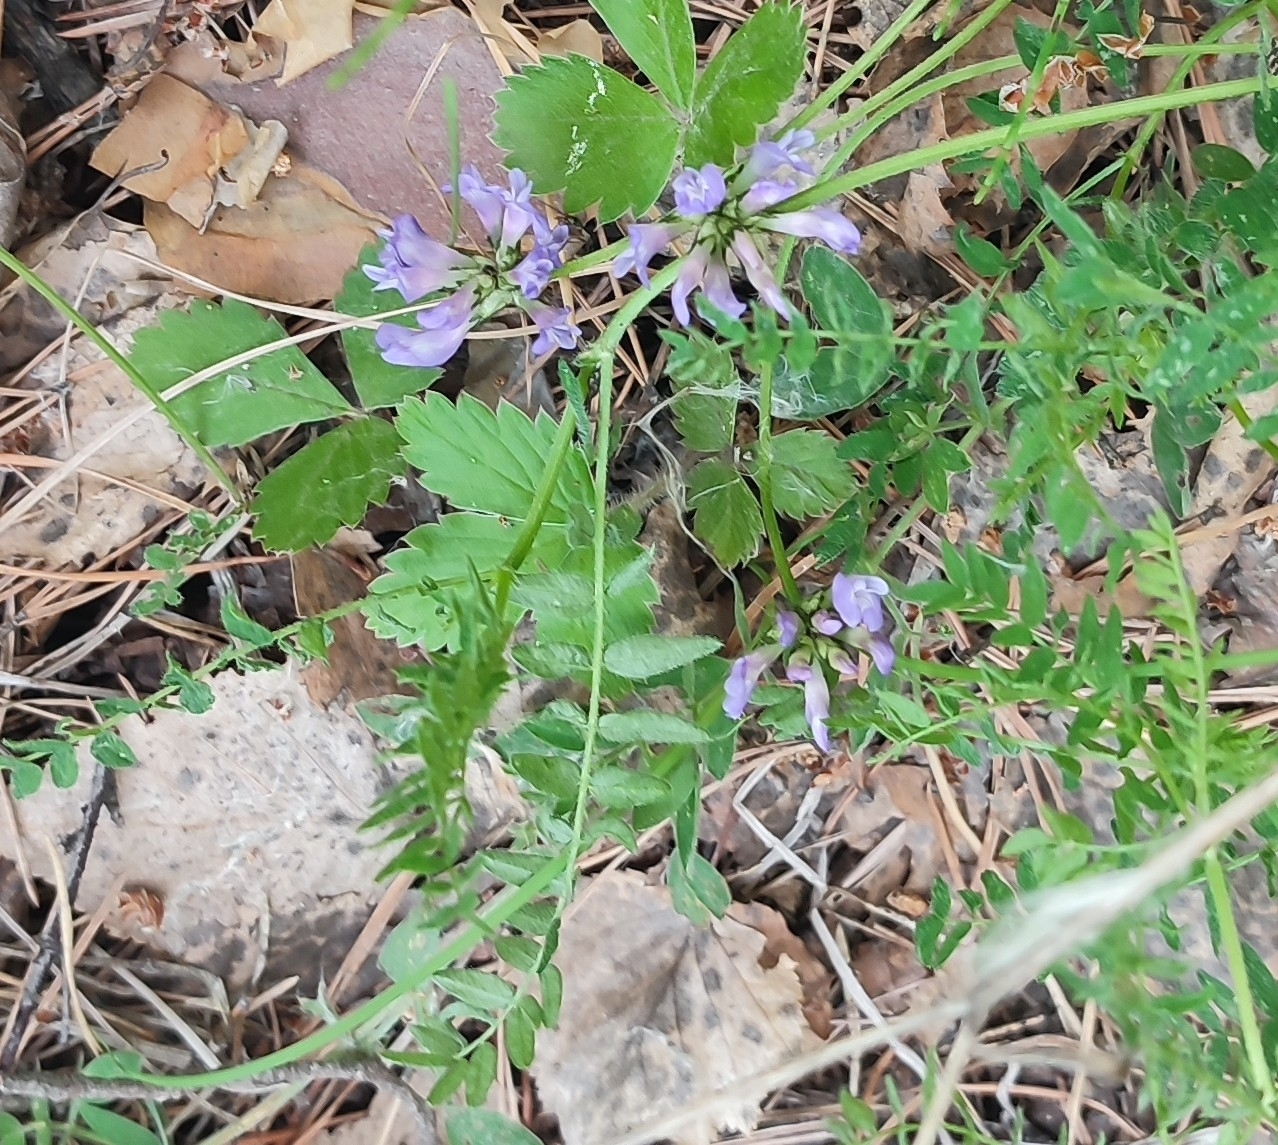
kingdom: Plantae
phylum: Tracheophyta
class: Magnoliopsida
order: Fabales
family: Fabaceae
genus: Astragalus
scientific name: Astragalus danicus
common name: Purple milk-vetch
